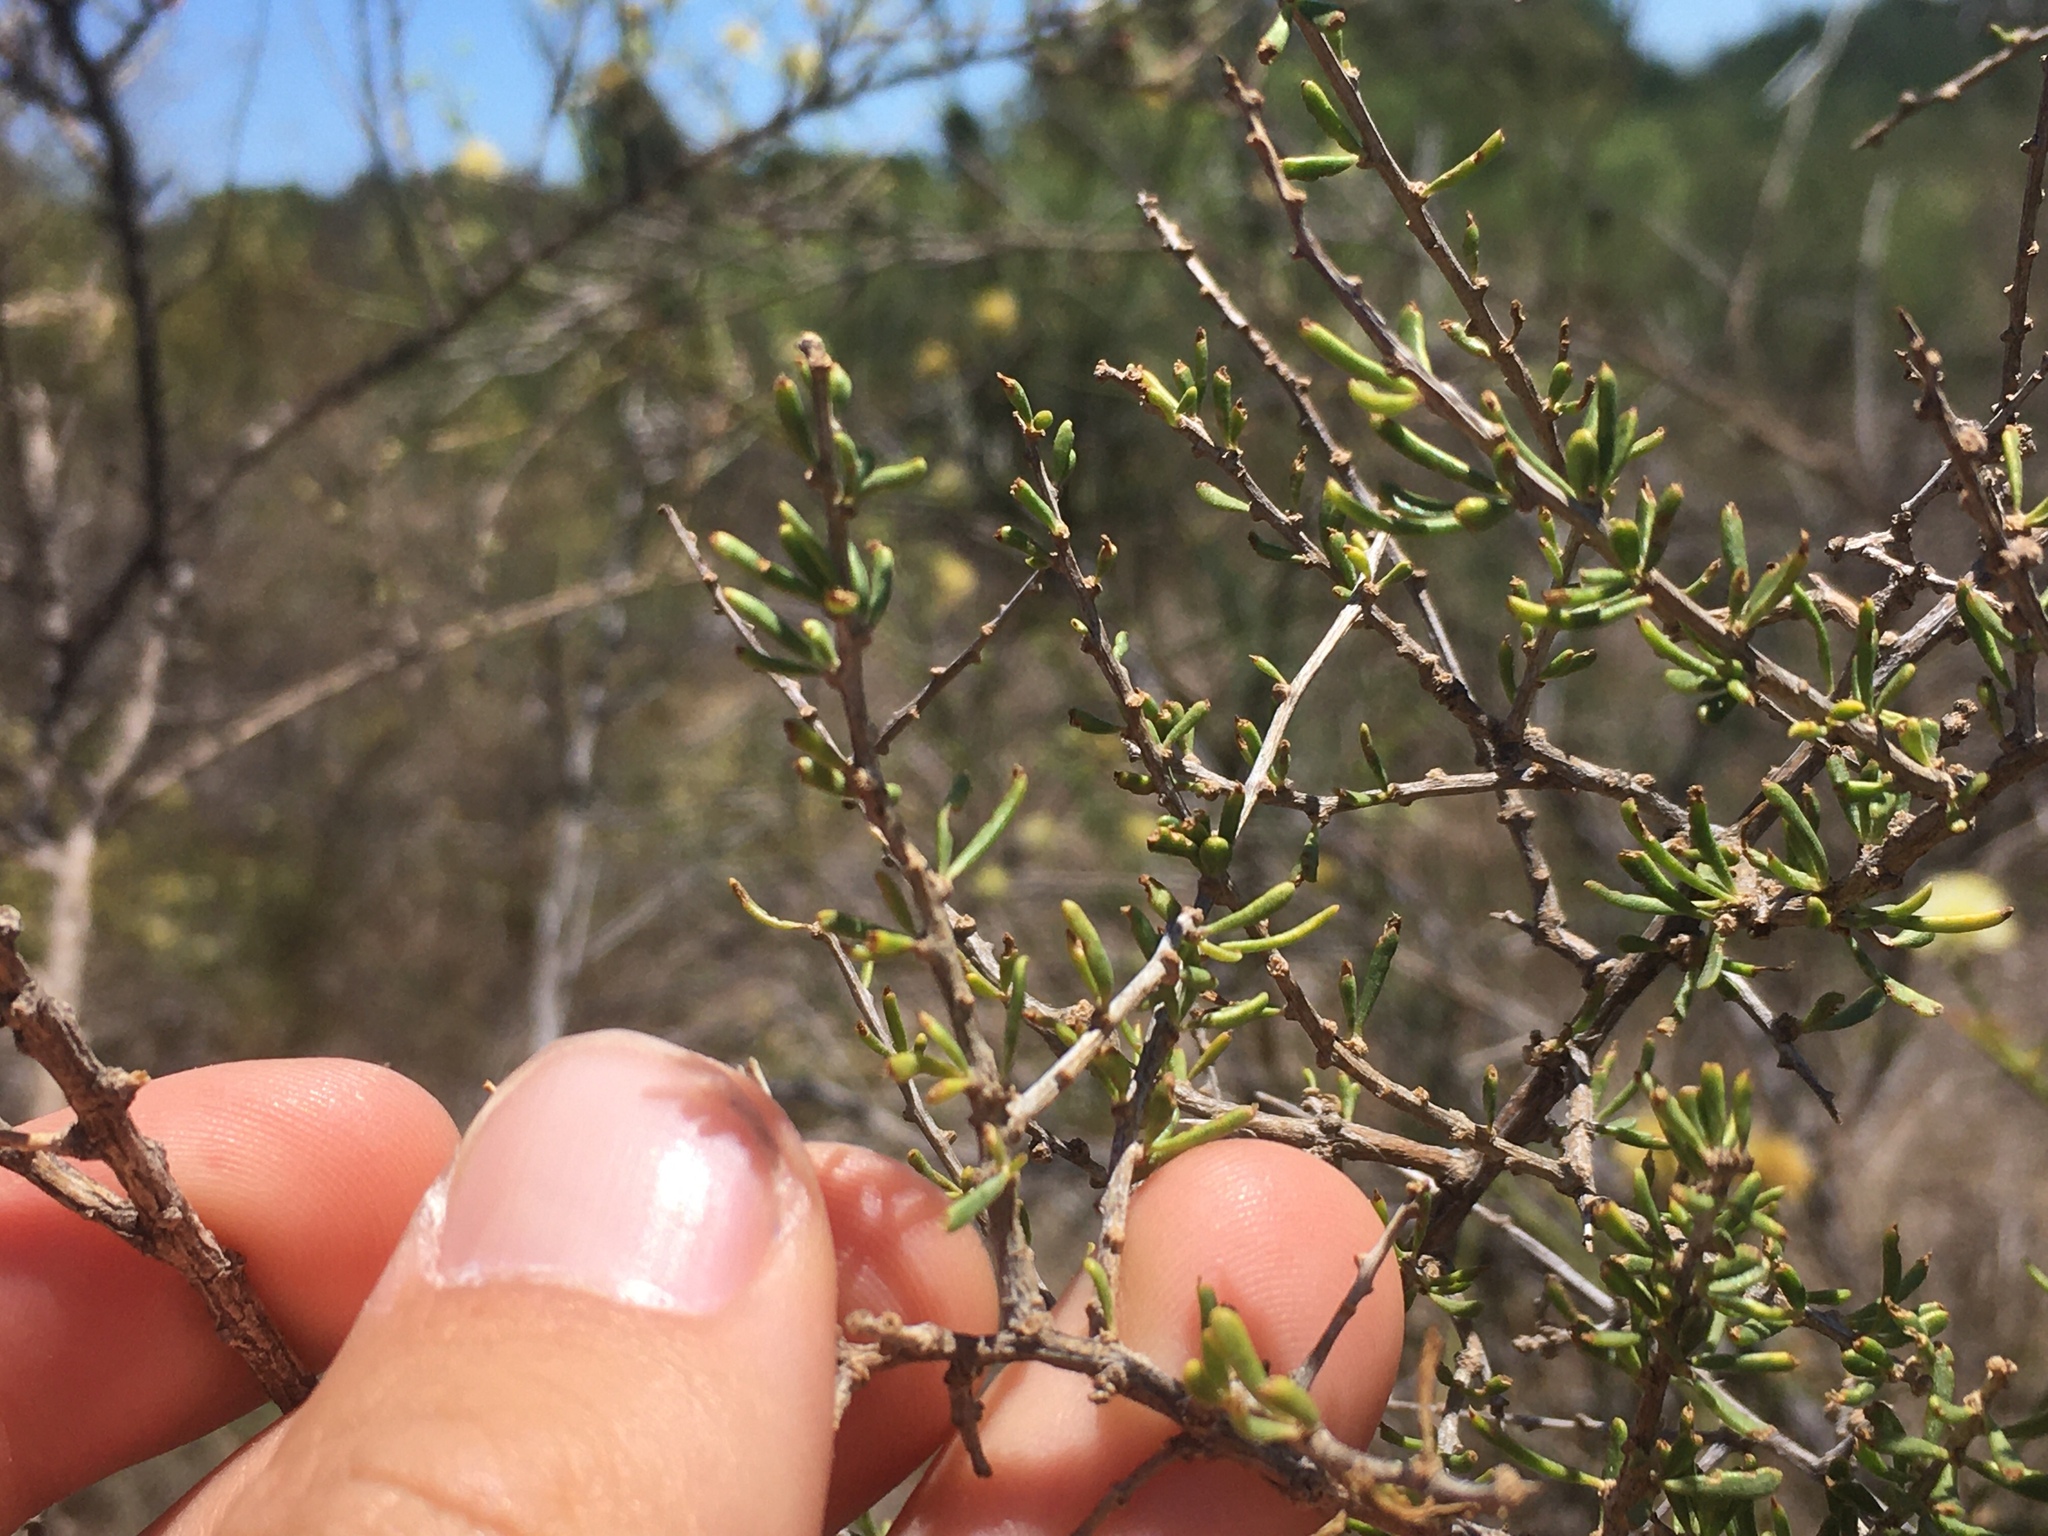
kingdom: Plantae
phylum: Tracheophyta
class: Magnoliopsida
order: Solanales
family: Solanaceae
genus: Lycium
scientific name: Lycium chilense
